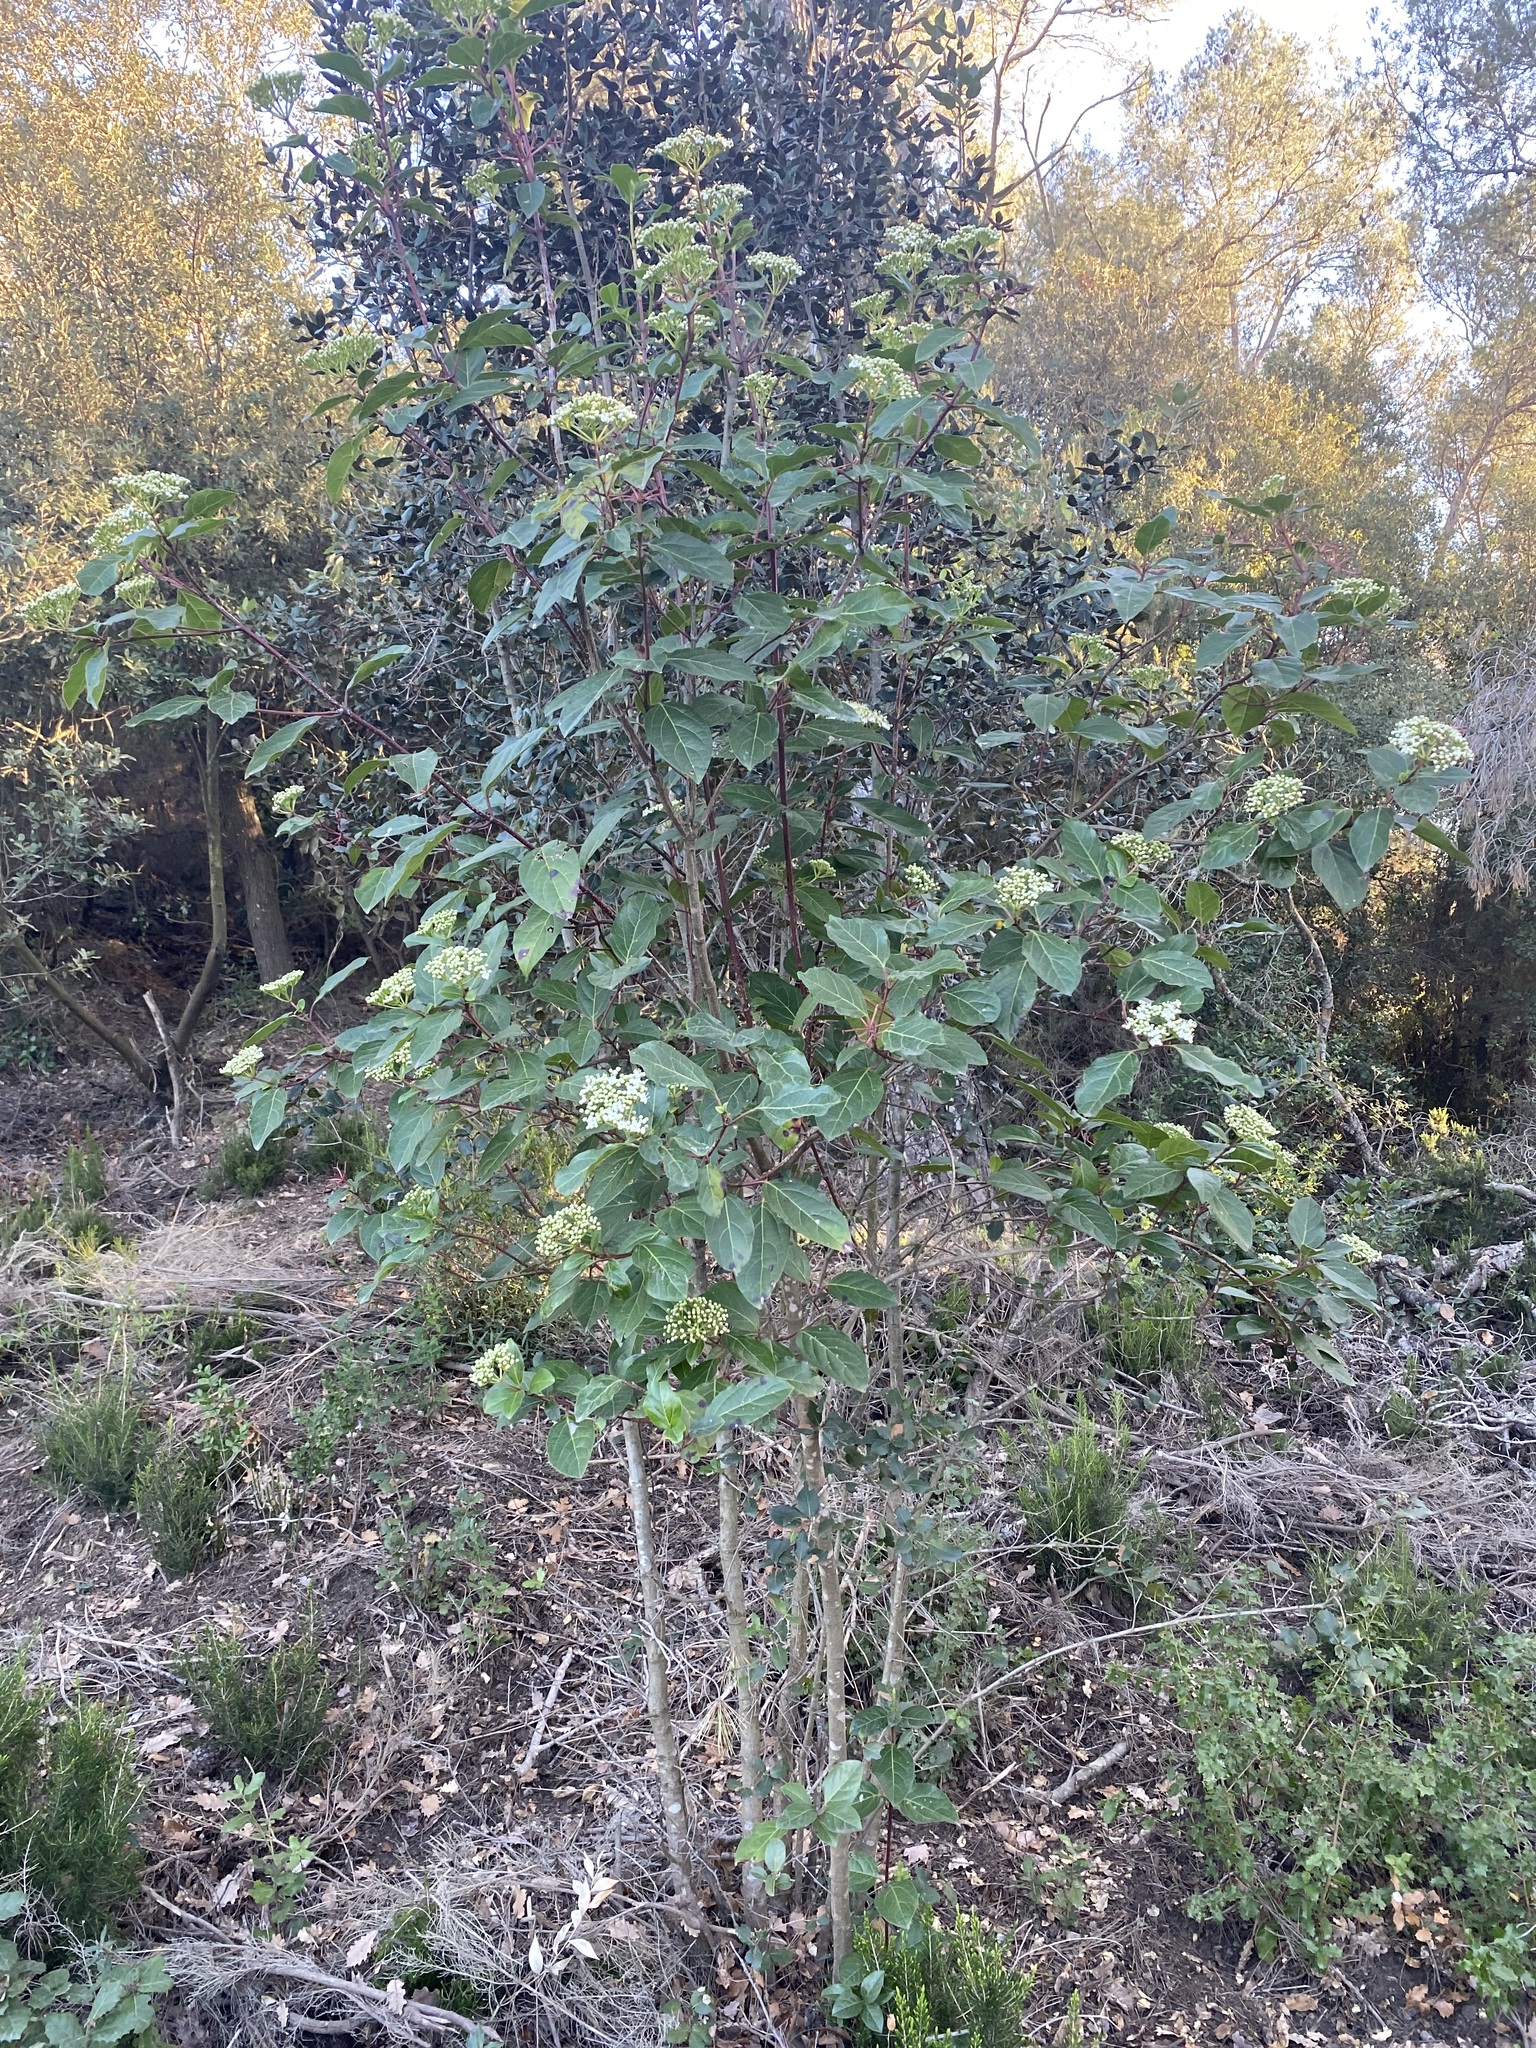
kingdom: Plantae
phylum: Tracheophyta
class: Magnoliopsida
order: Dipsacales
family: Viburnaceae
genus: Viburnum
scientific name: Viburnum tinus
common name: Laurustinus
